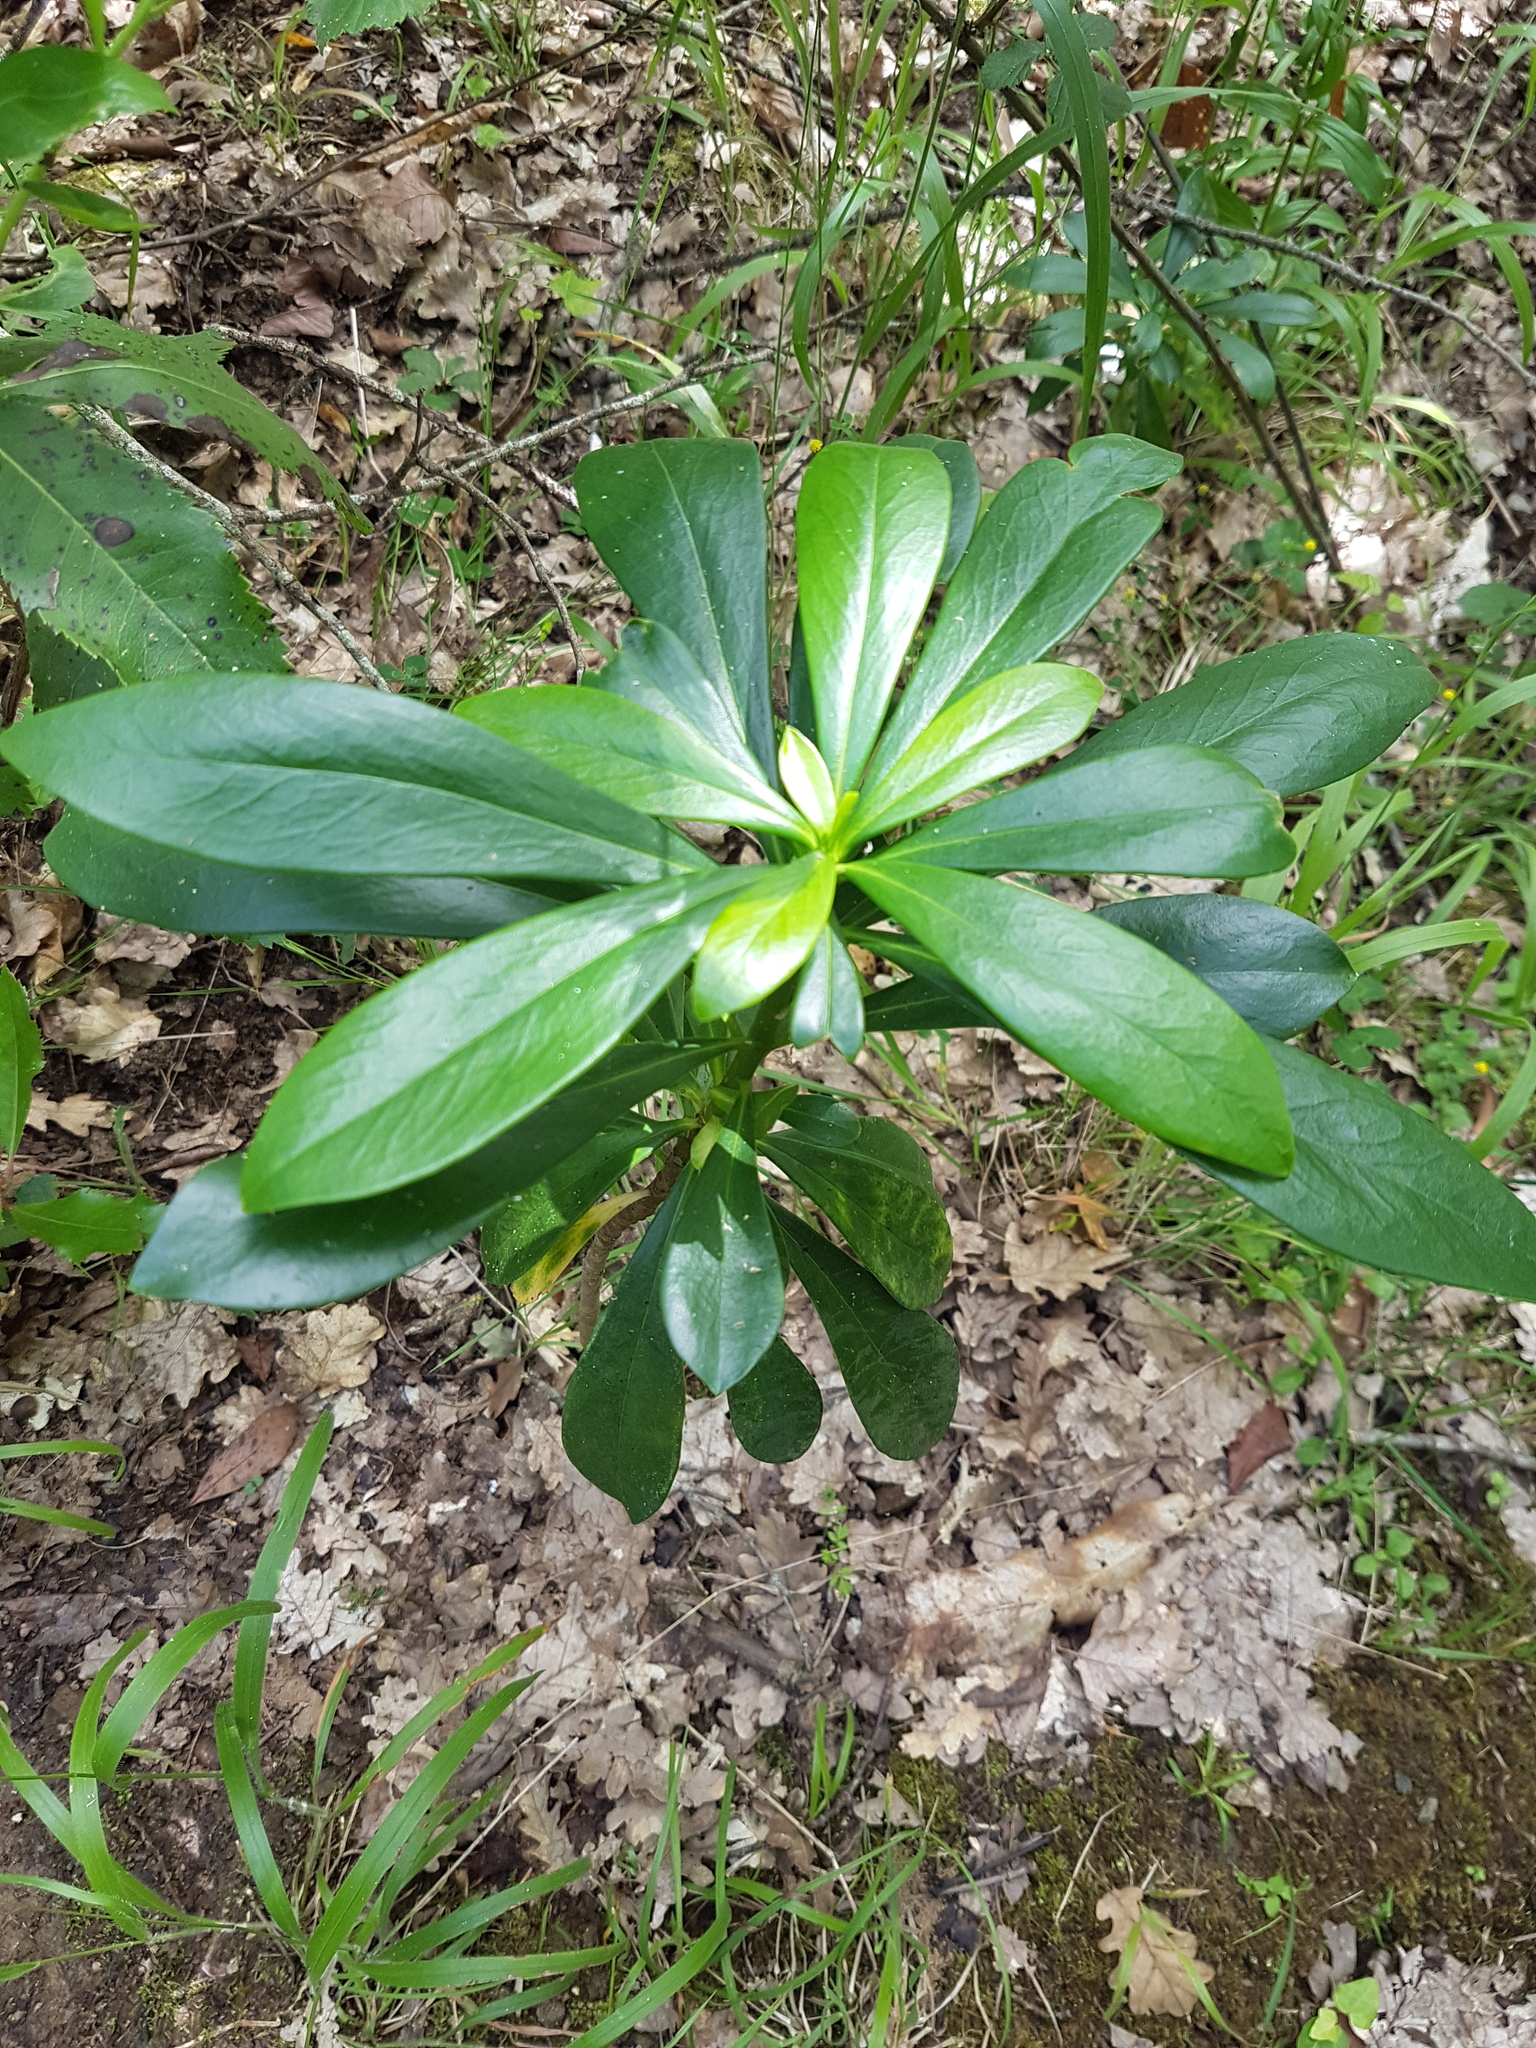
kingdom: Plantae
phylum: Tracheophyta
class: Magnoliopsida
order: Malvales
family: Thymelaeaceae
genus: Daphne
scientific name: Daphne laureola
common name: Spurge-laurel
